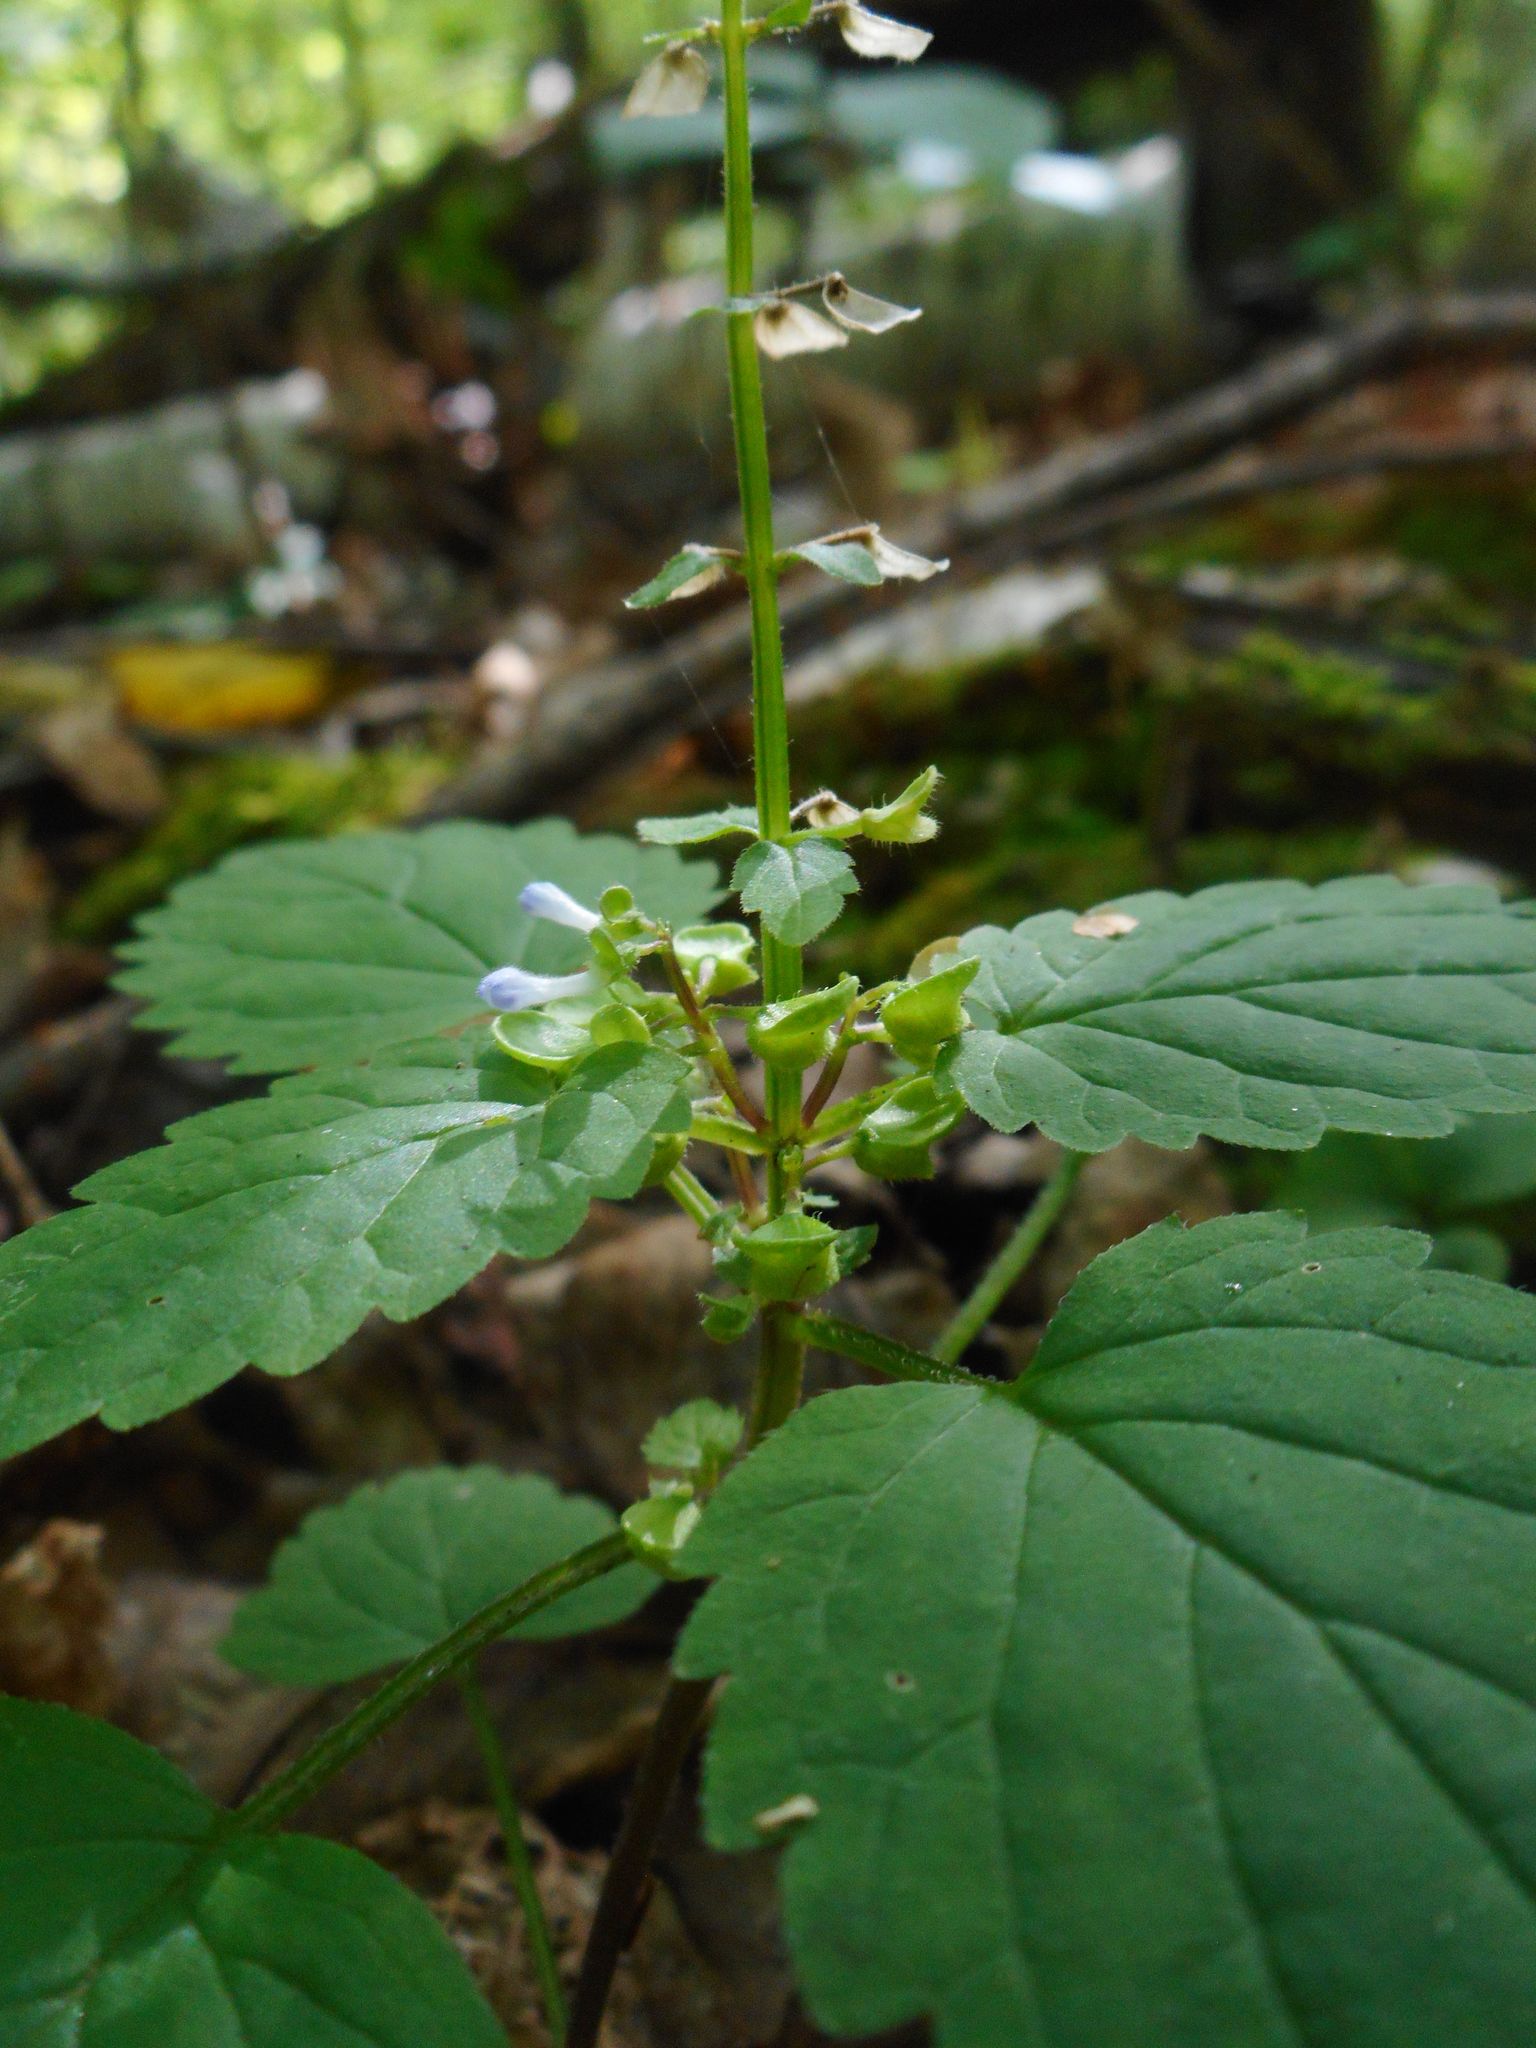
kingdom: Plantae
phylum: Tracheophyta
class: Magnoliopsida
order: Lamiales
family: Lamiaceae
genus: Scutellaria
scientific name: Scutellaria pekinensis
